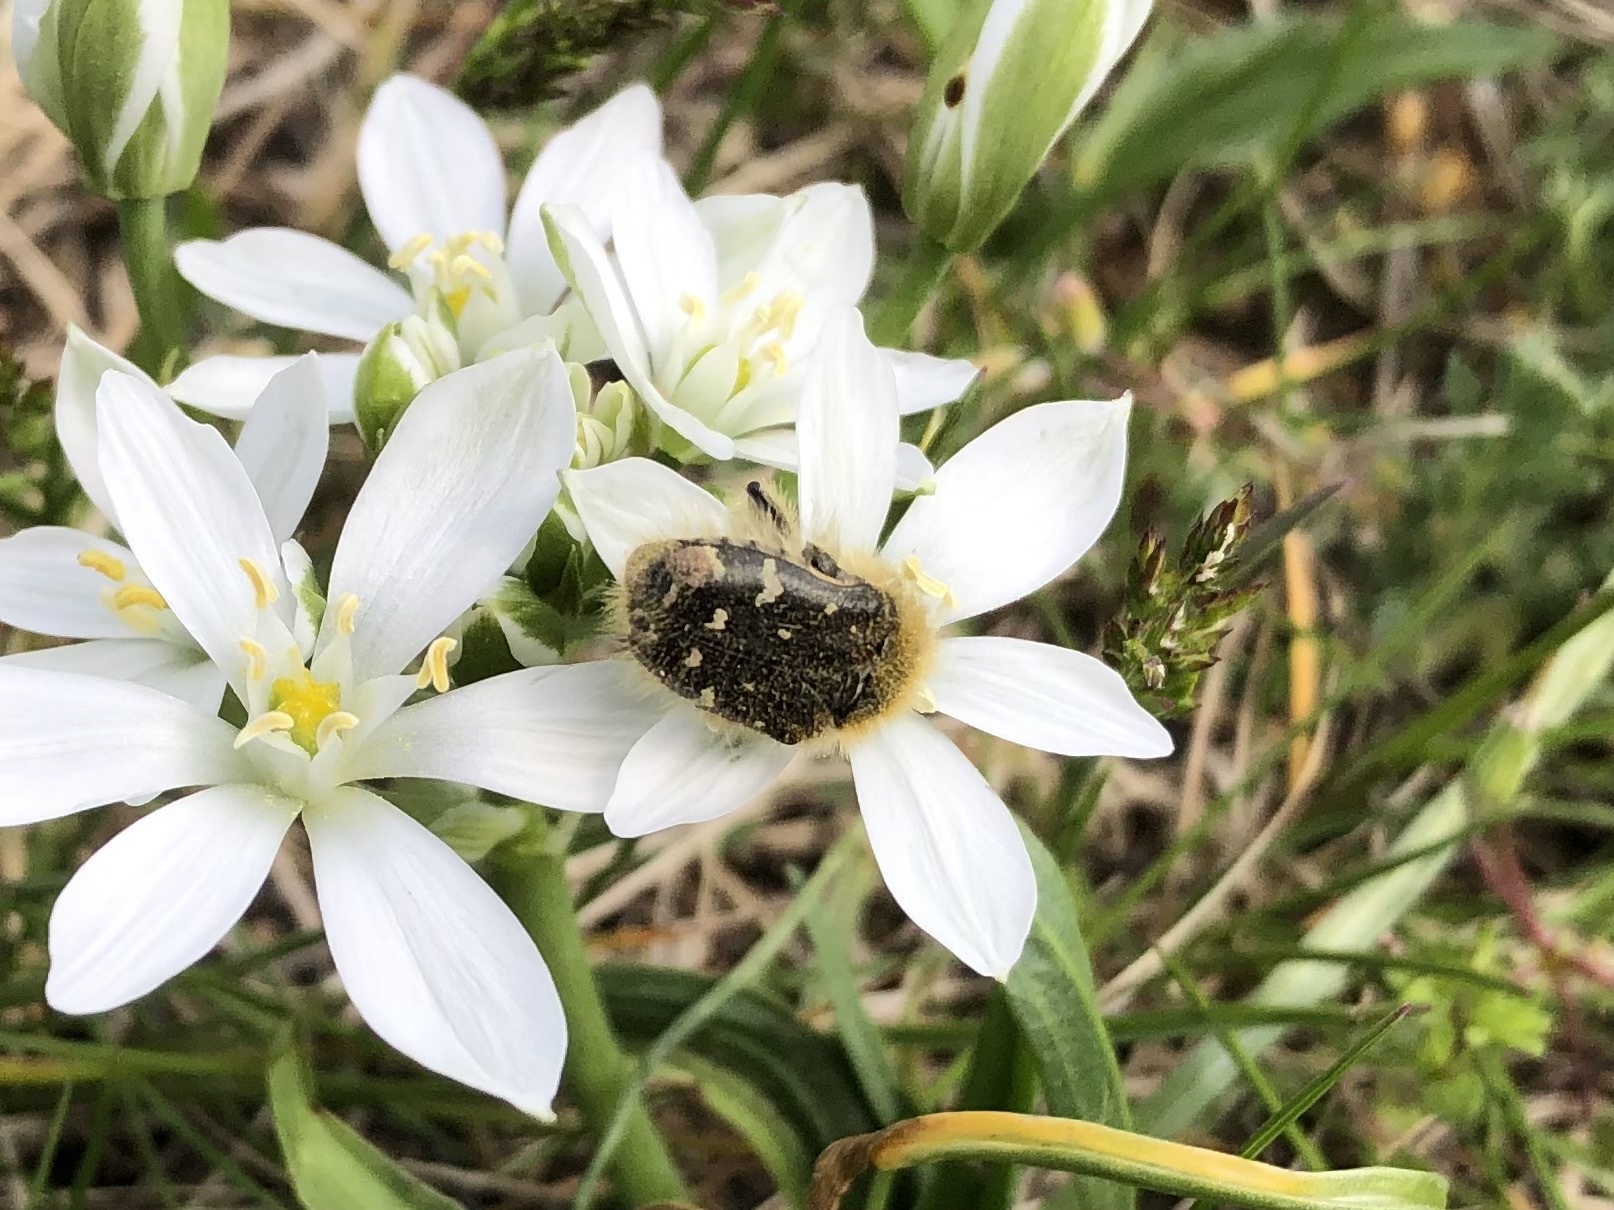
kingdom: Animalia
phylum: Arthropoda
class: Insecta
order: Coleoptera
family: Scarabaeidae
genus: Tropinota
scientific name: Tropinota hirta
